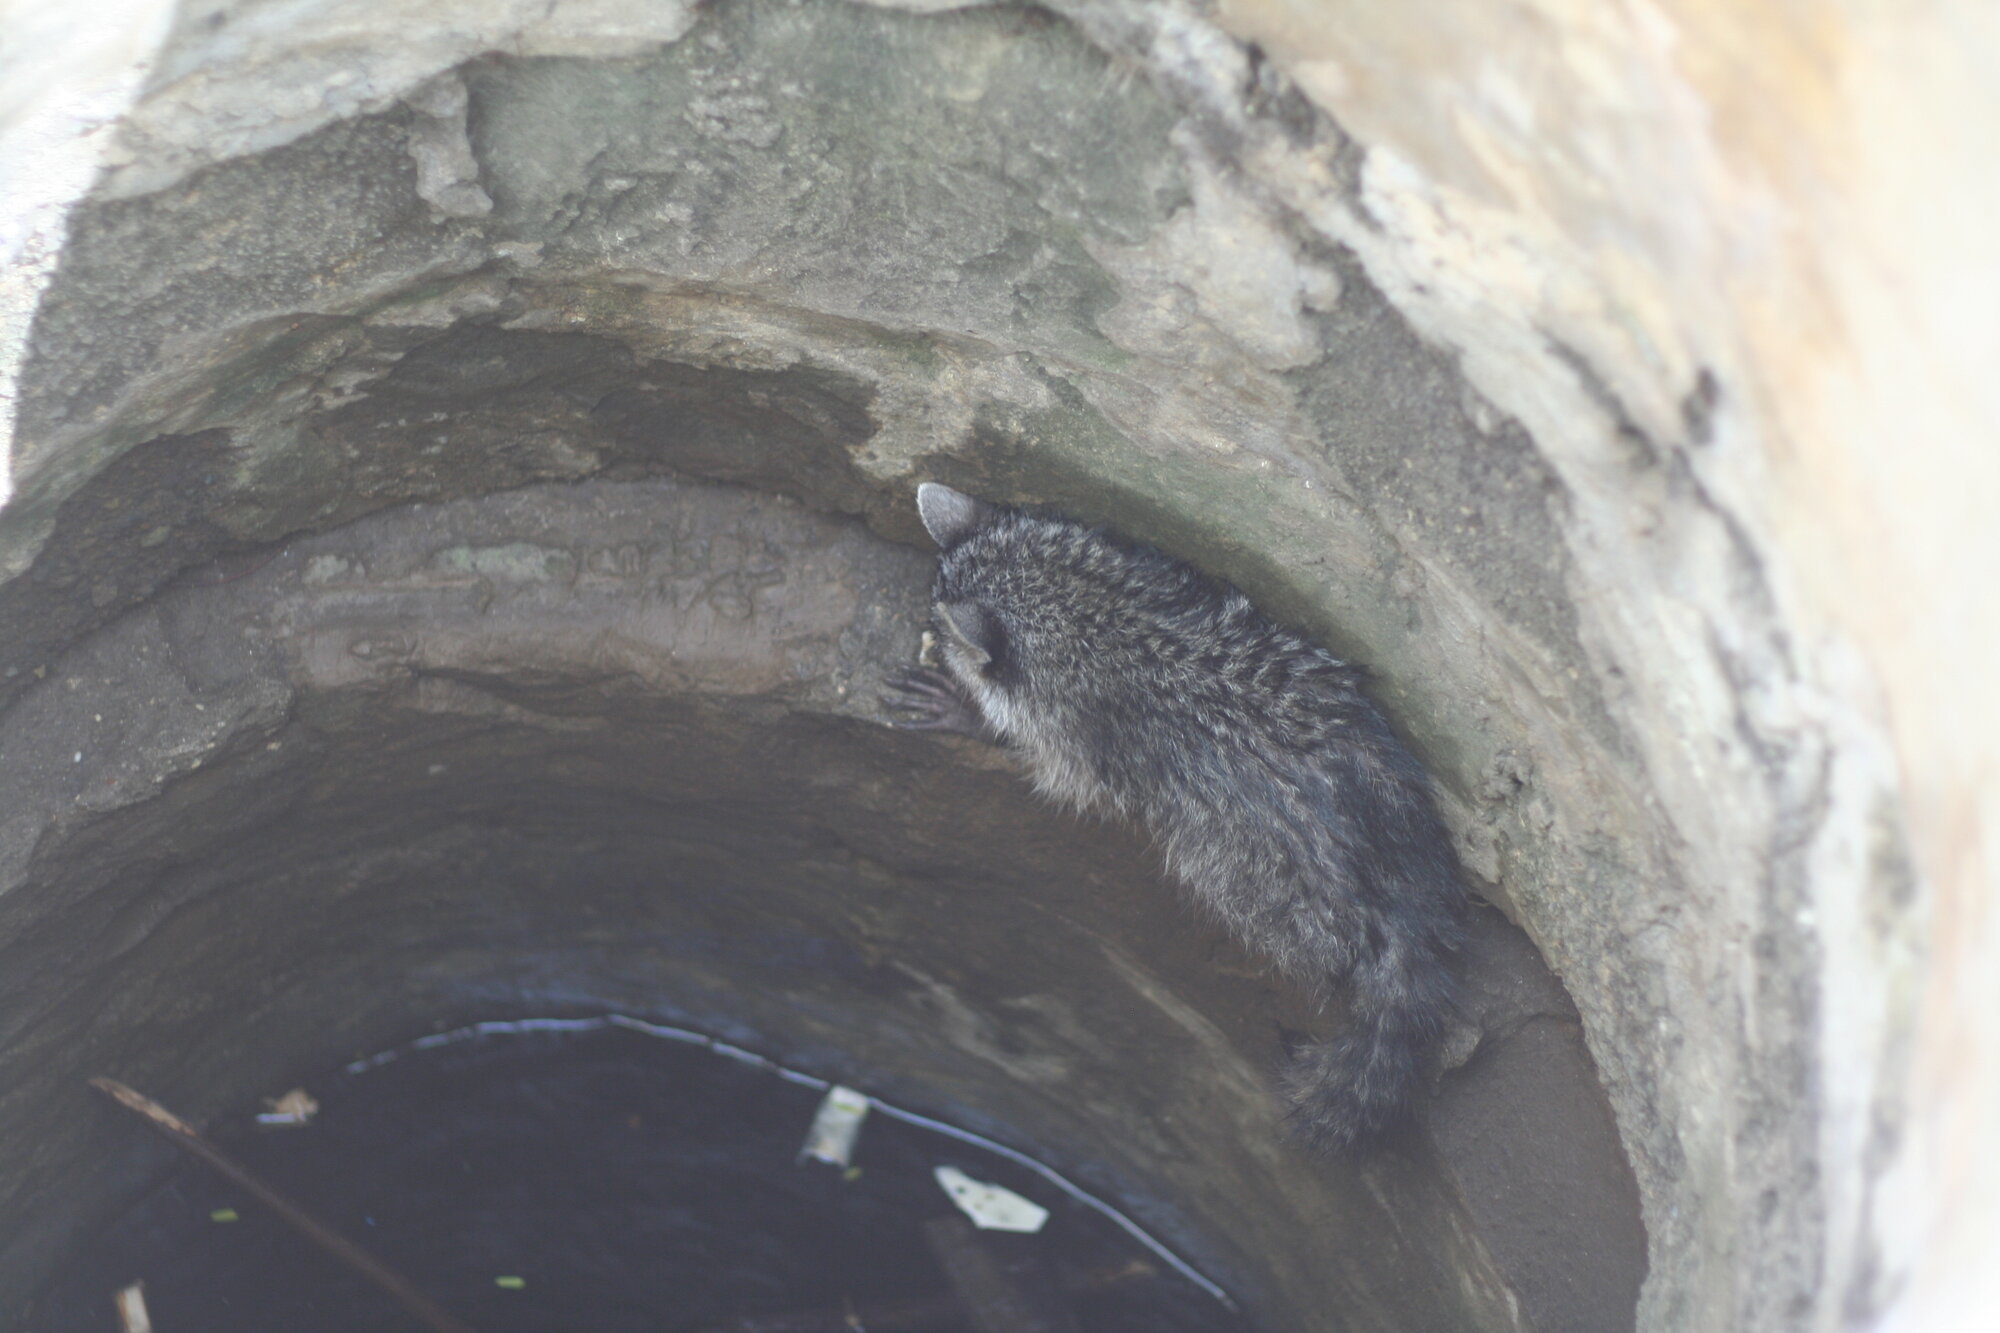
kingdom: Animalia
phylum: Chordata
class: Mammalia
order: Carnivora
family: Procyonidae
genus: Procyon
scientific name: Procyon lotor
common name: Raccoon
